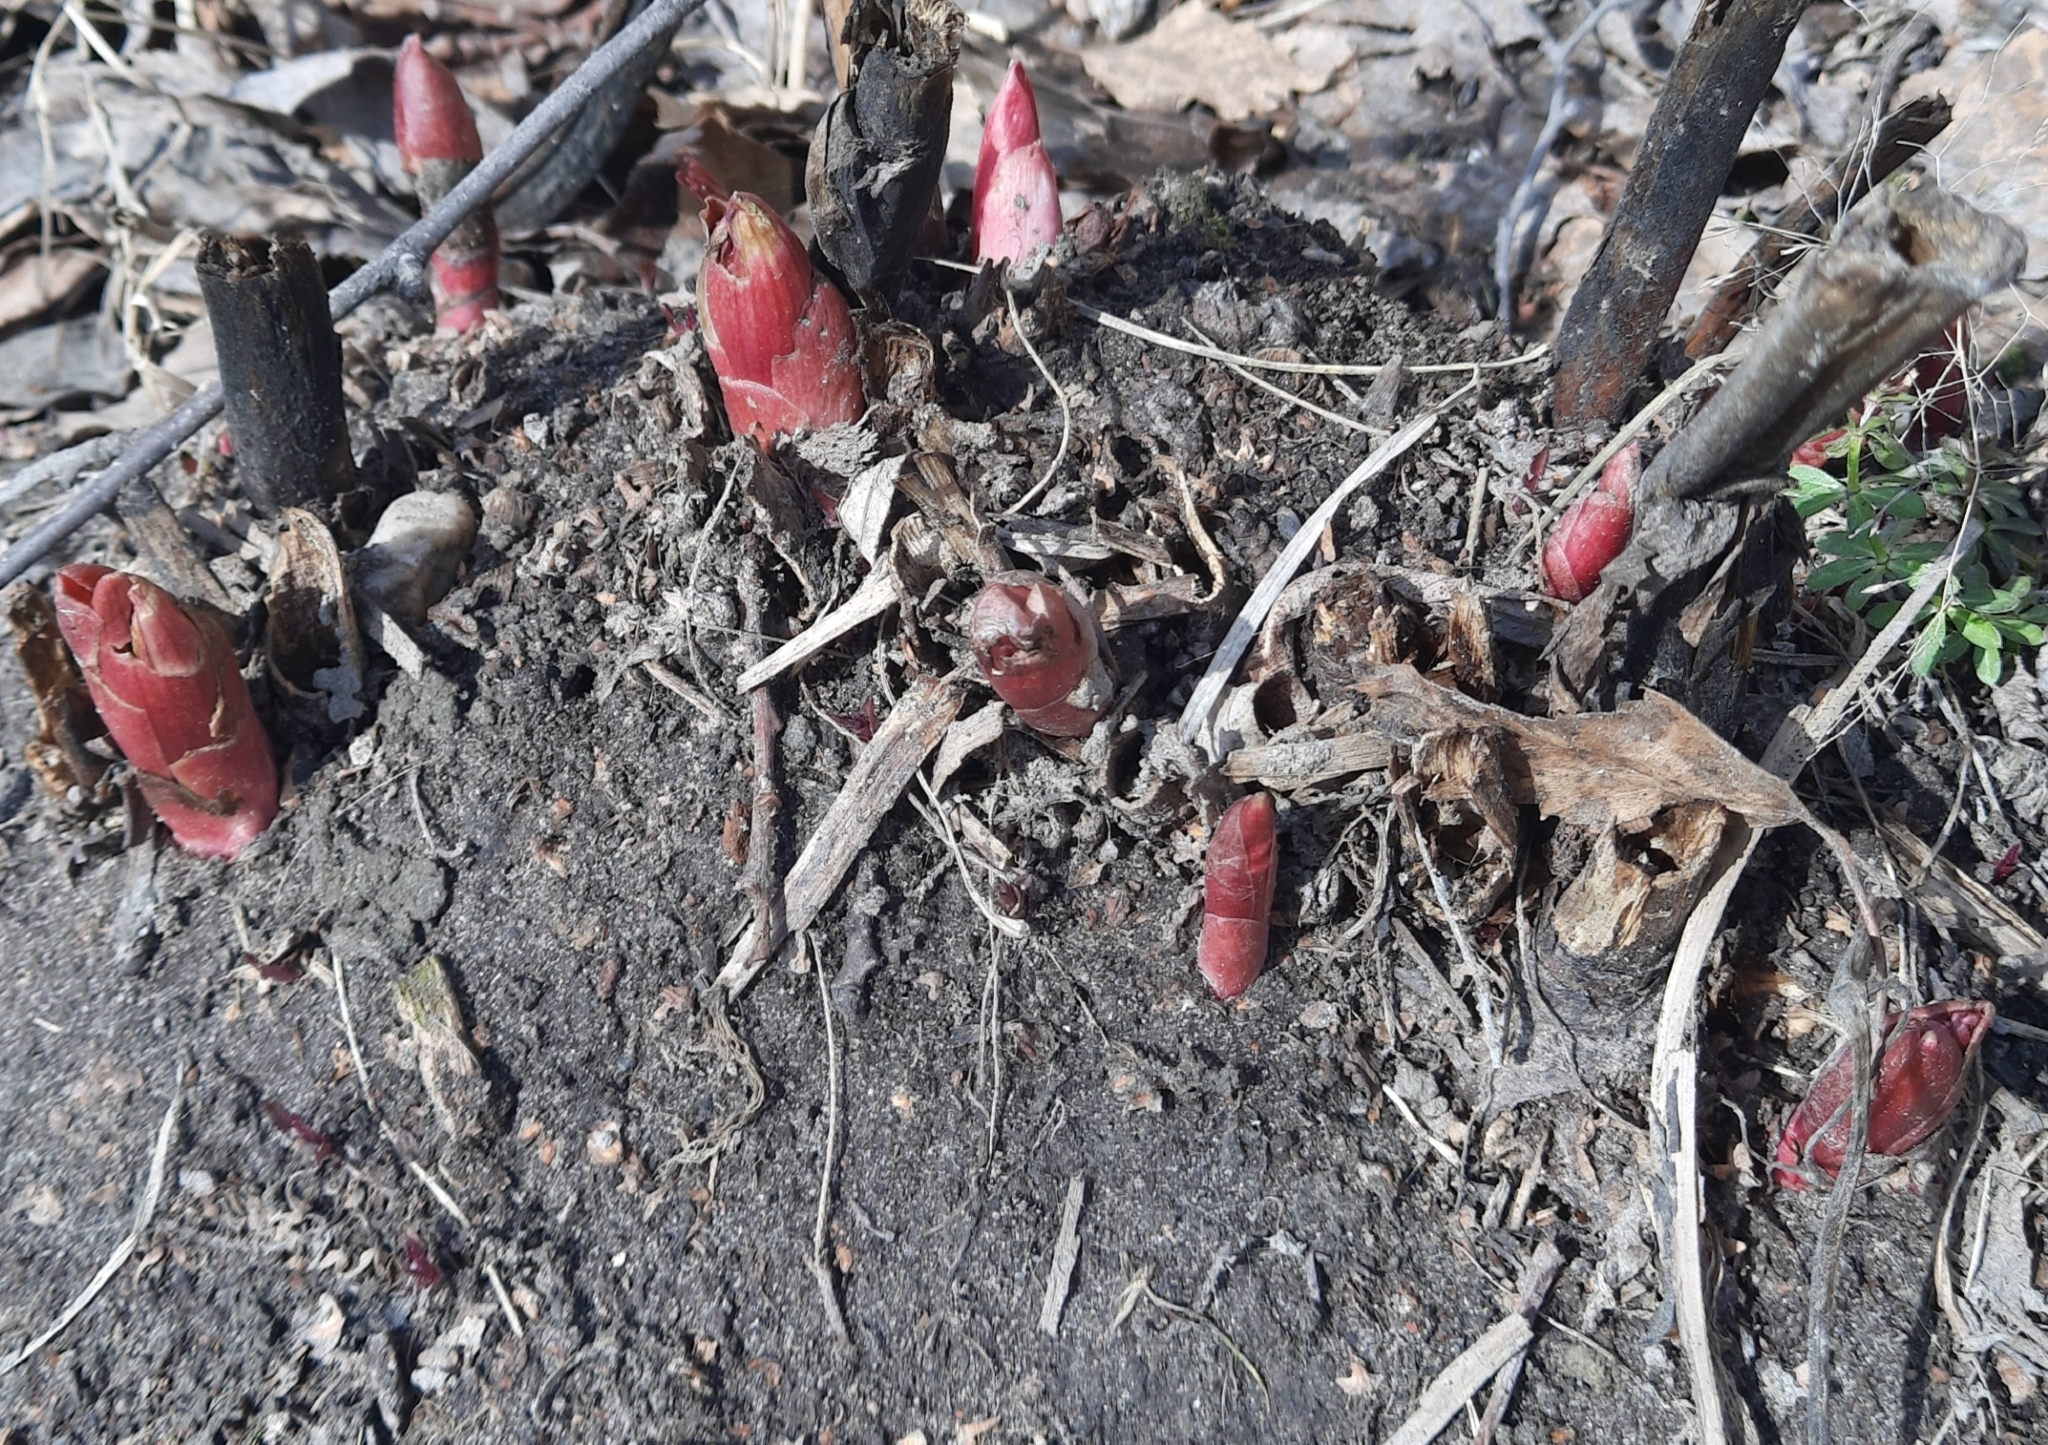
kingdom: Plantae
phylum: Tracheophyta
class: Magnoliopsida
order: Saxifragales
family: Paeoniaceae
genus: Paeonia
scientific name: Paeonia anomala
